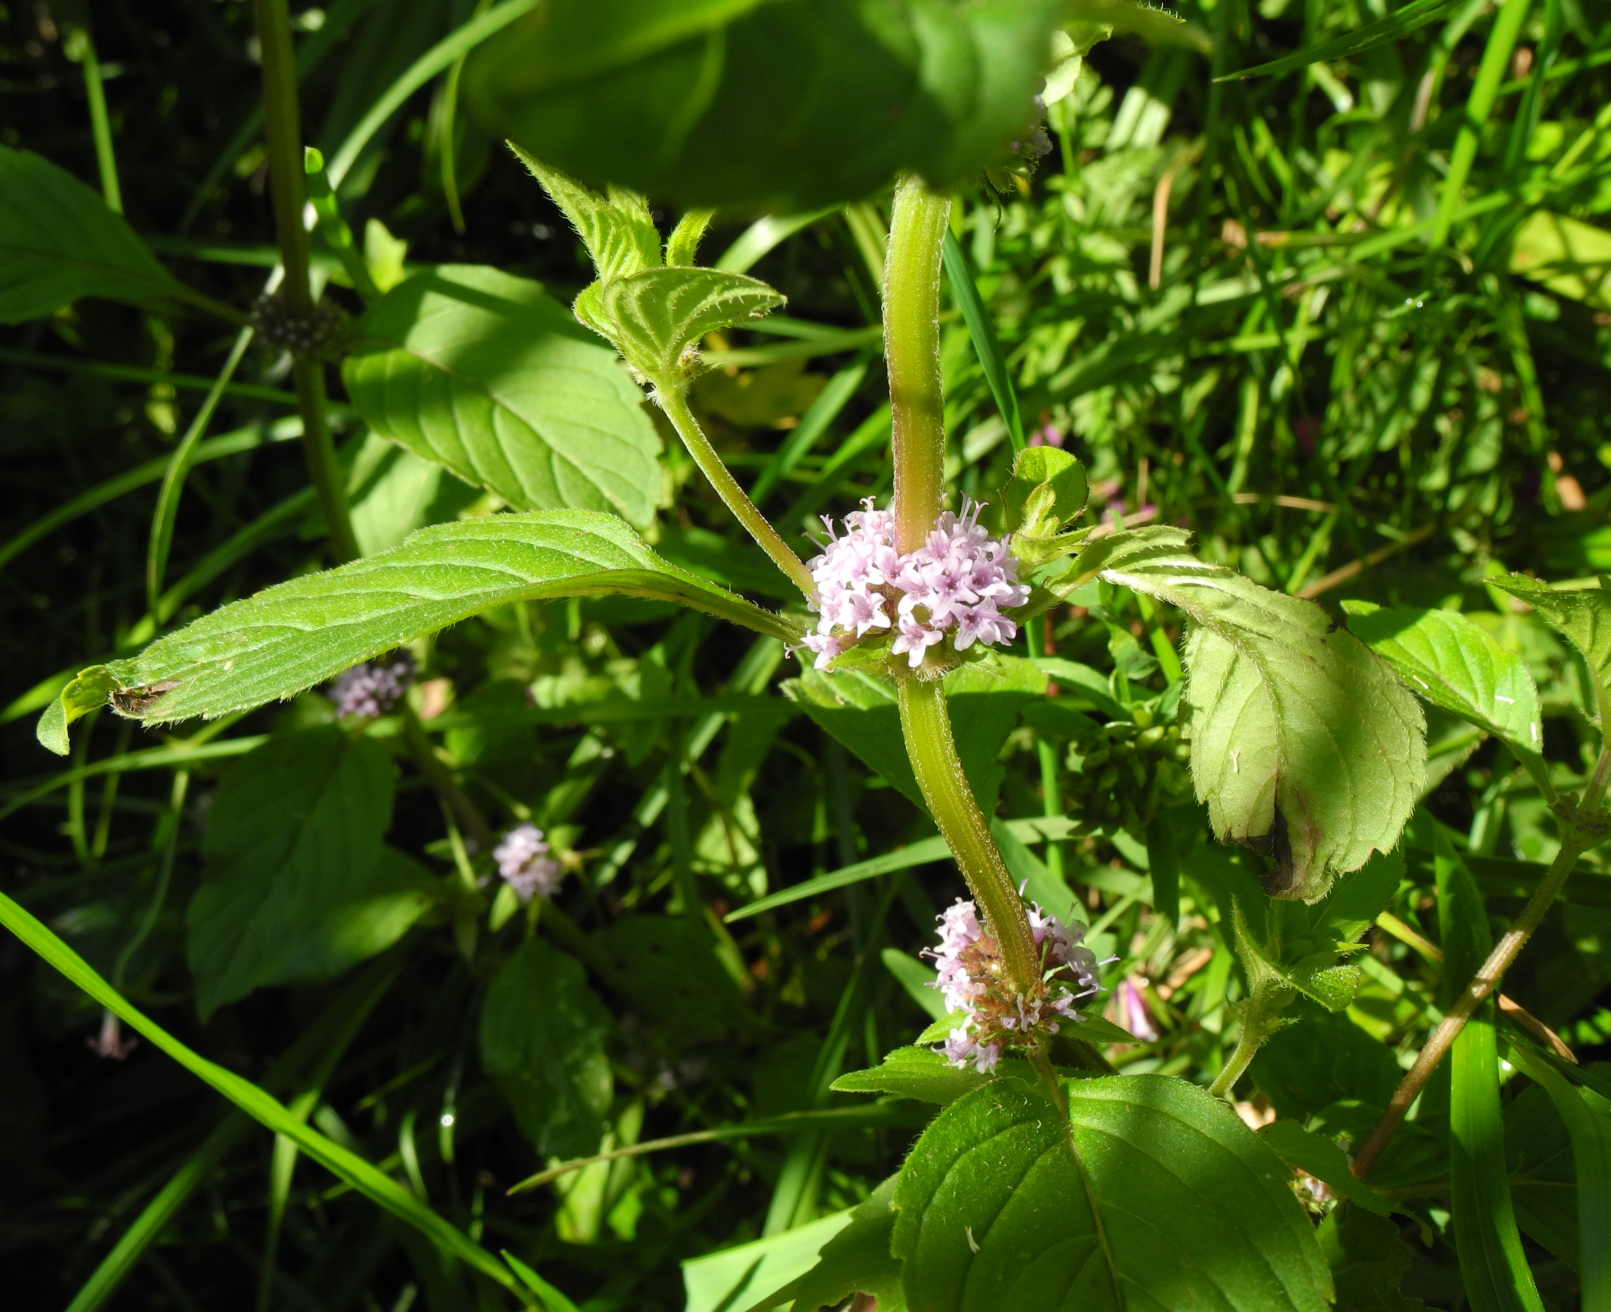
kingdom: Plantae
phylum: Tracheophyta
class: Magnoliopsida
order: Lamiales
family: Lamiaceae
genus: Mentha
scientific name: Mentha arvensis
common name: Corn mint
